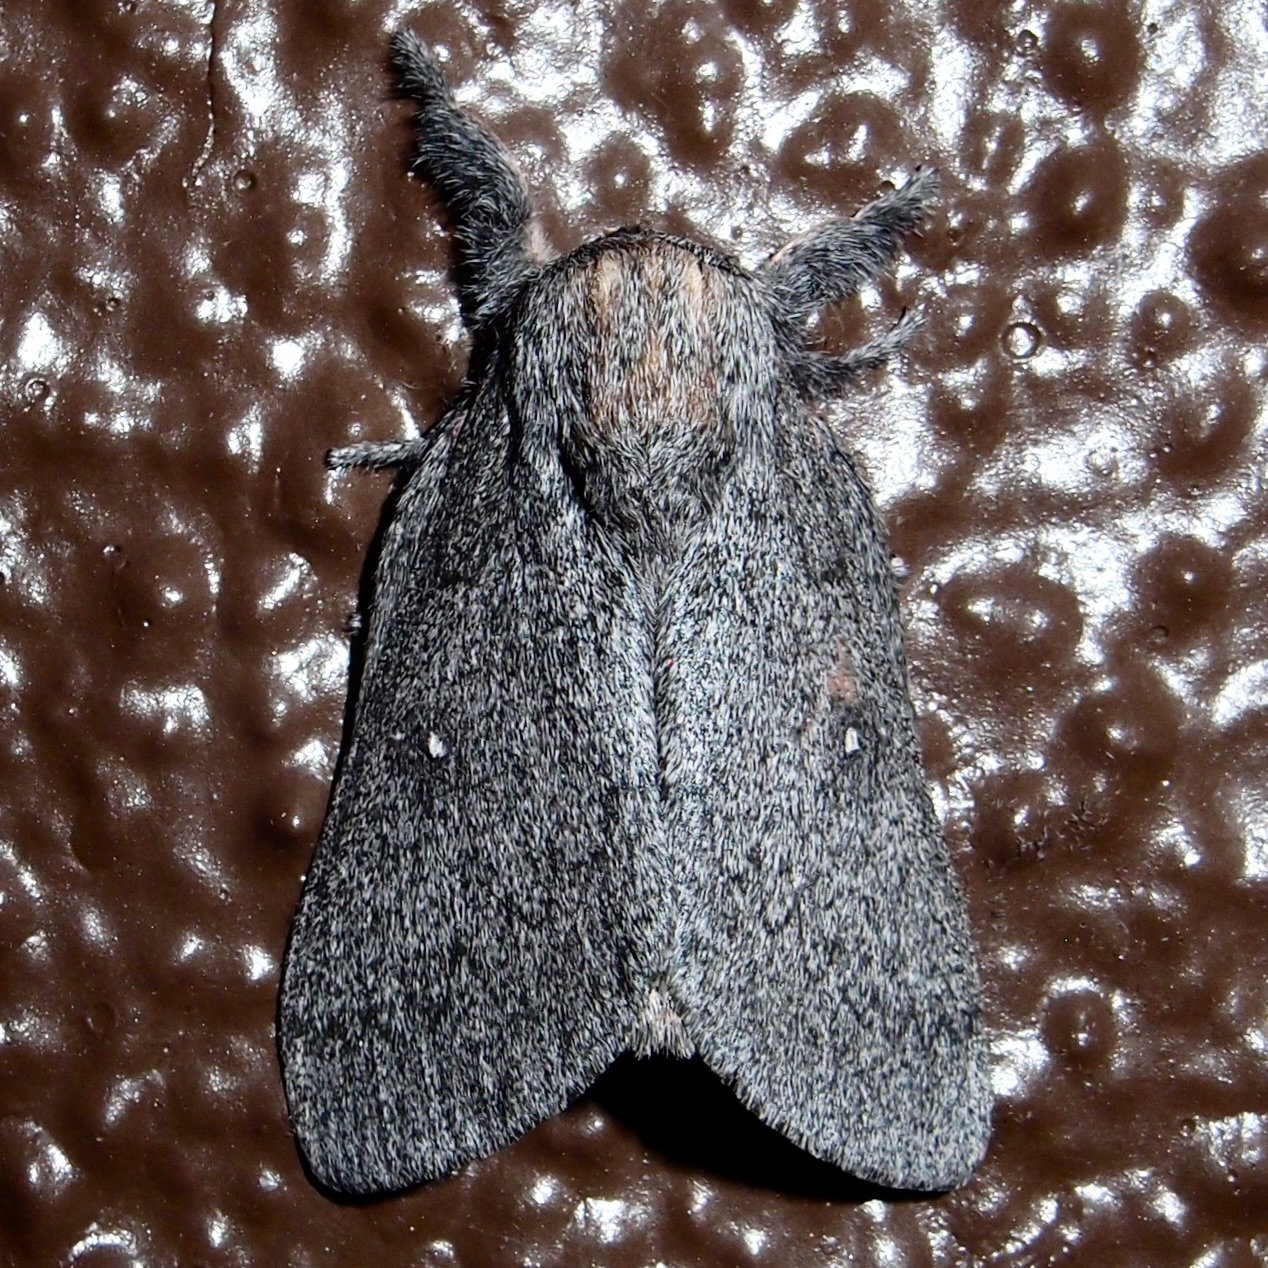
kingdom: Animalia
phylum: Arthropoda
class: Insecta
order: Lepidoptera
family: Saturniidae
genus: Syssphinx
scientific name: Syssphinx hubbardi
